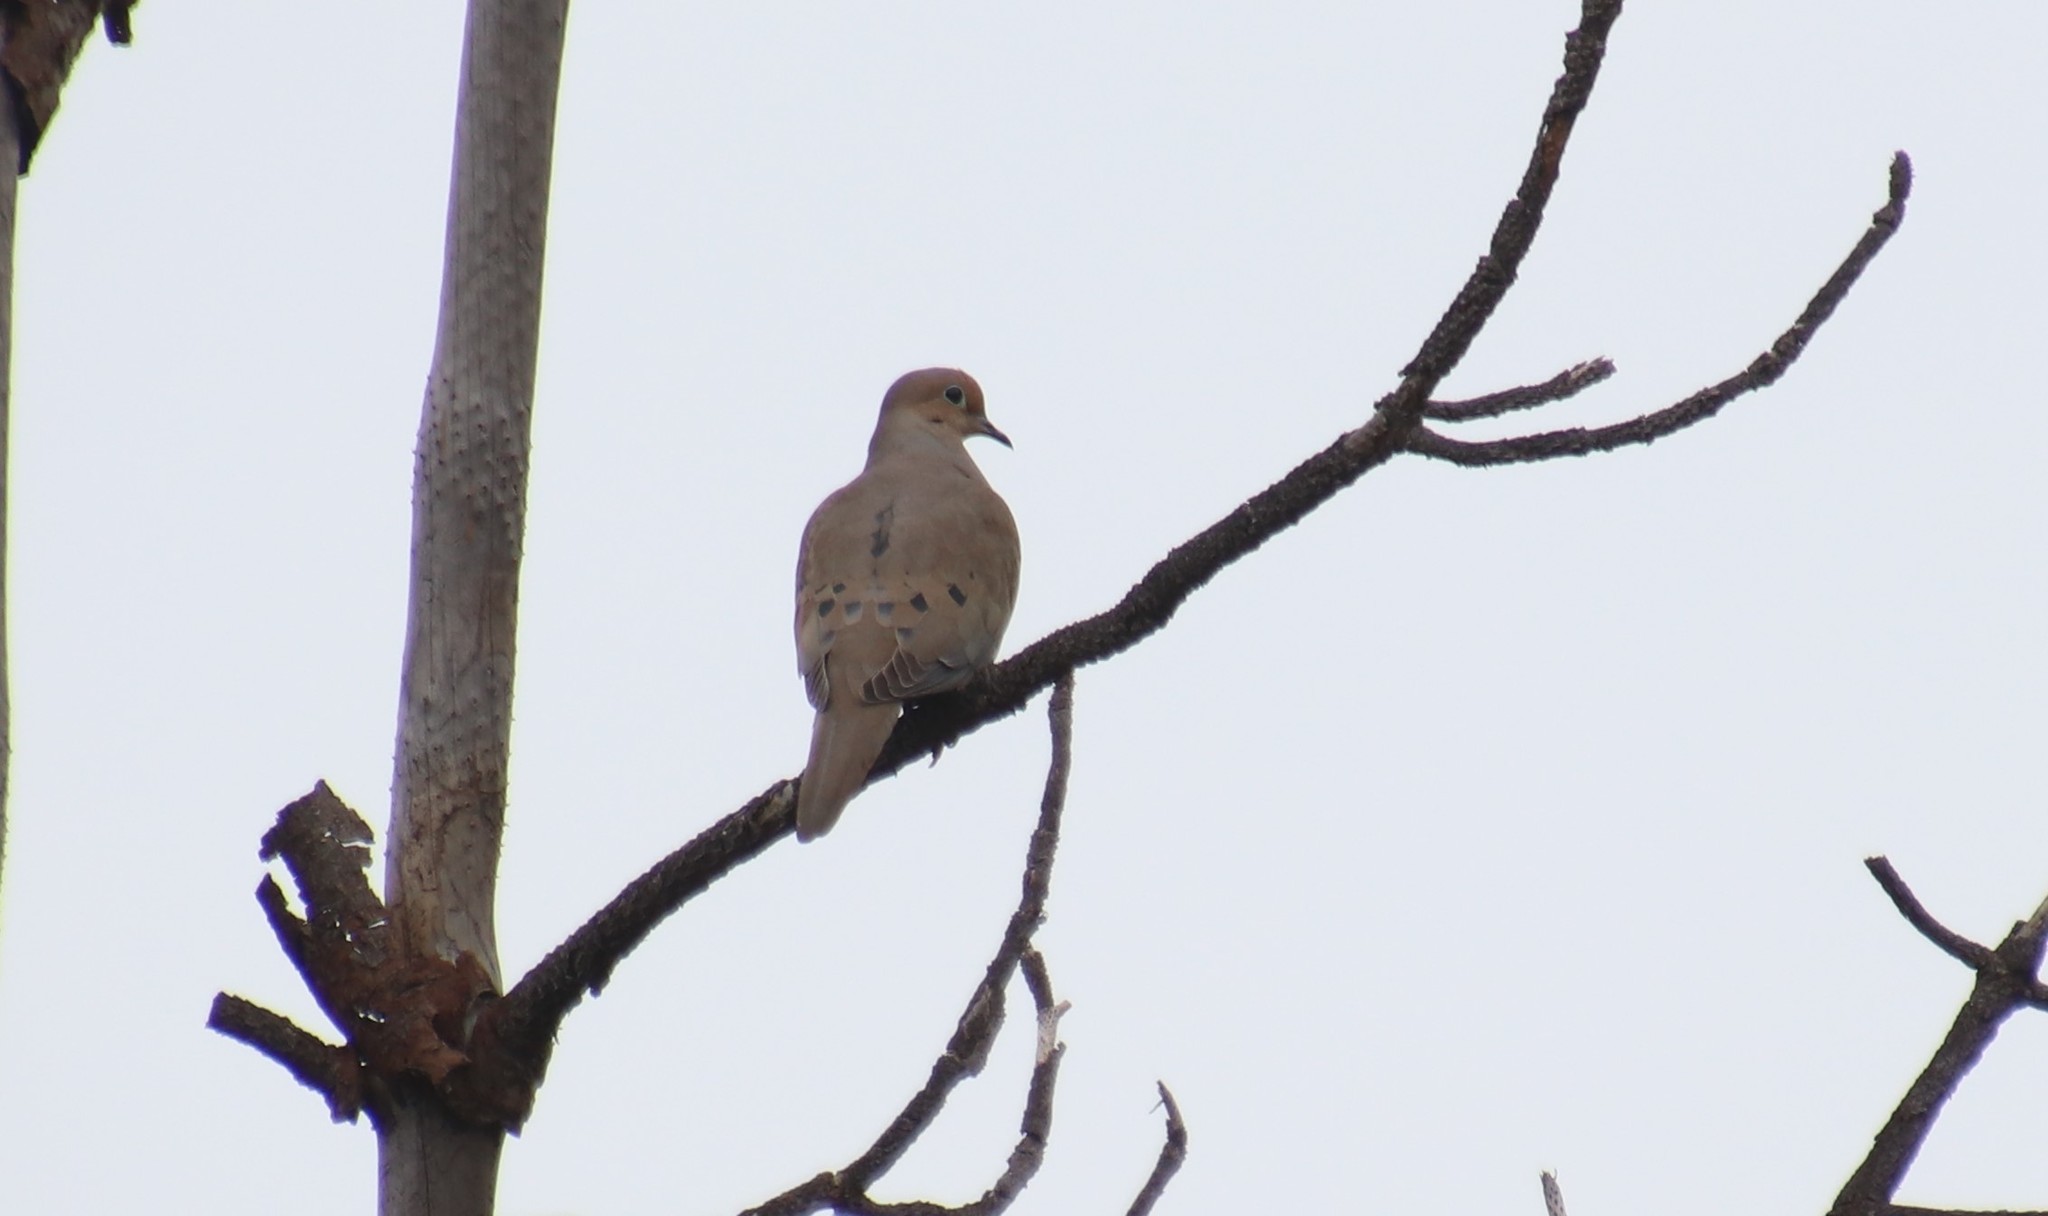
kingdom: Animalia
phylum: Chordata
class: Aves
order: Columbiformes
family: Columbidae
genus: Zenaida
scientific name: Zenaida macroura
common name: Mourning dove
